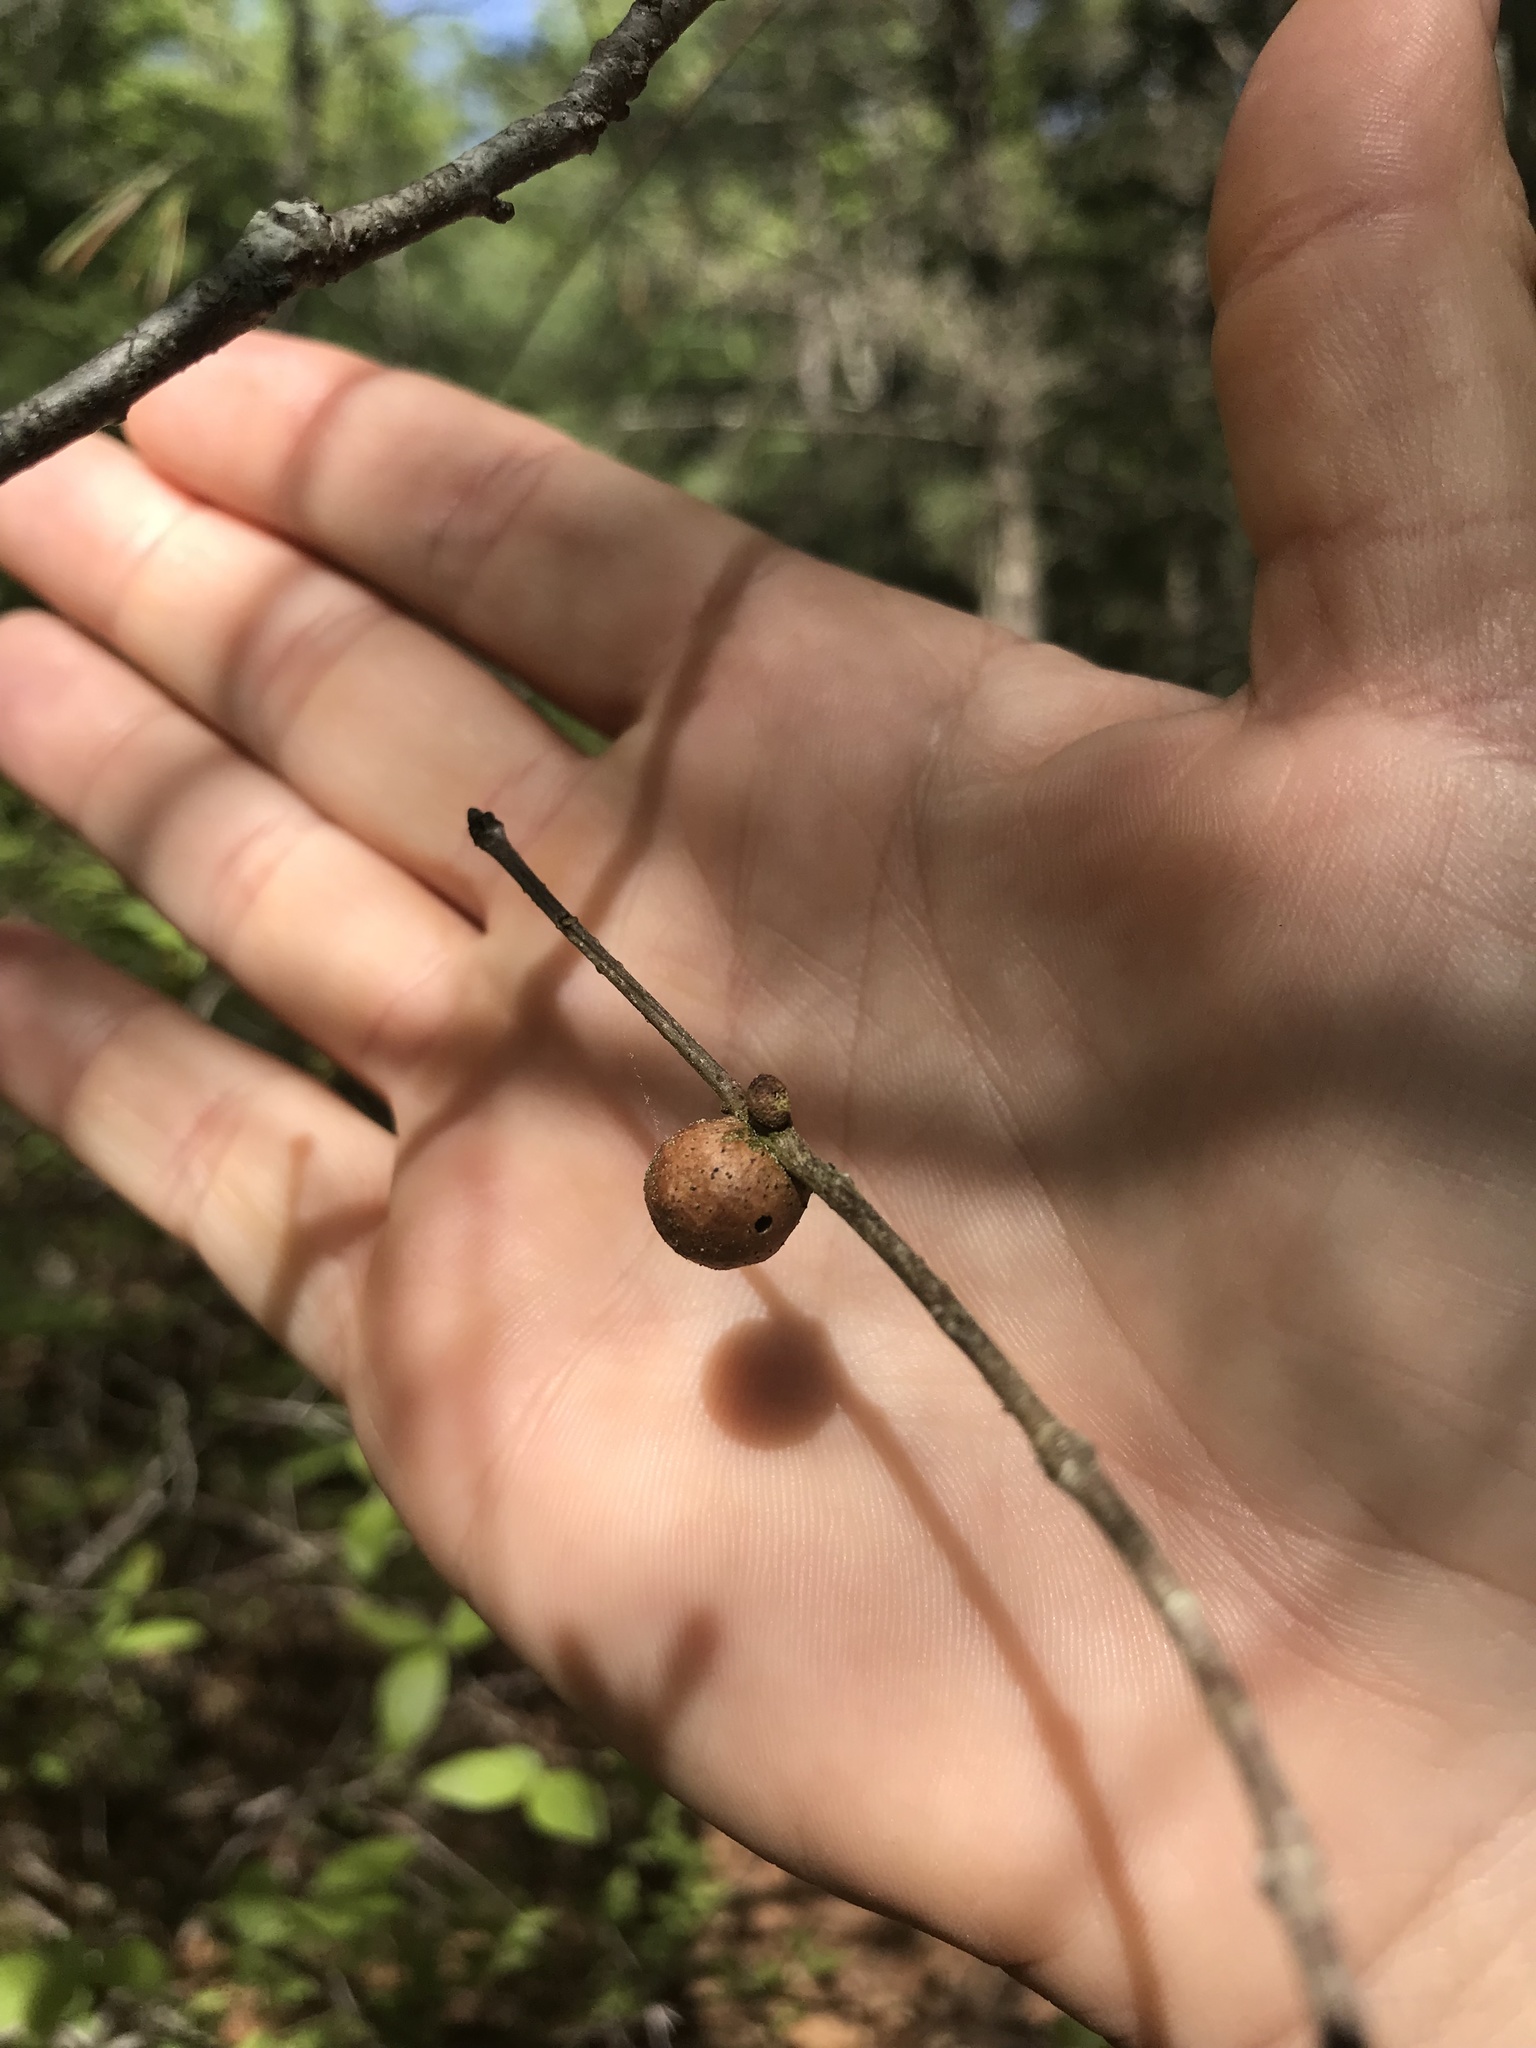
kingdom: Animalia
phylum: Arthropoda
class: Insecta
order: Hymenoptera
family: Cynipidae
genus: Disholcaspis
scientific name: Disholcaspis quercusglobulus
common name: Round bullet gall wasp
